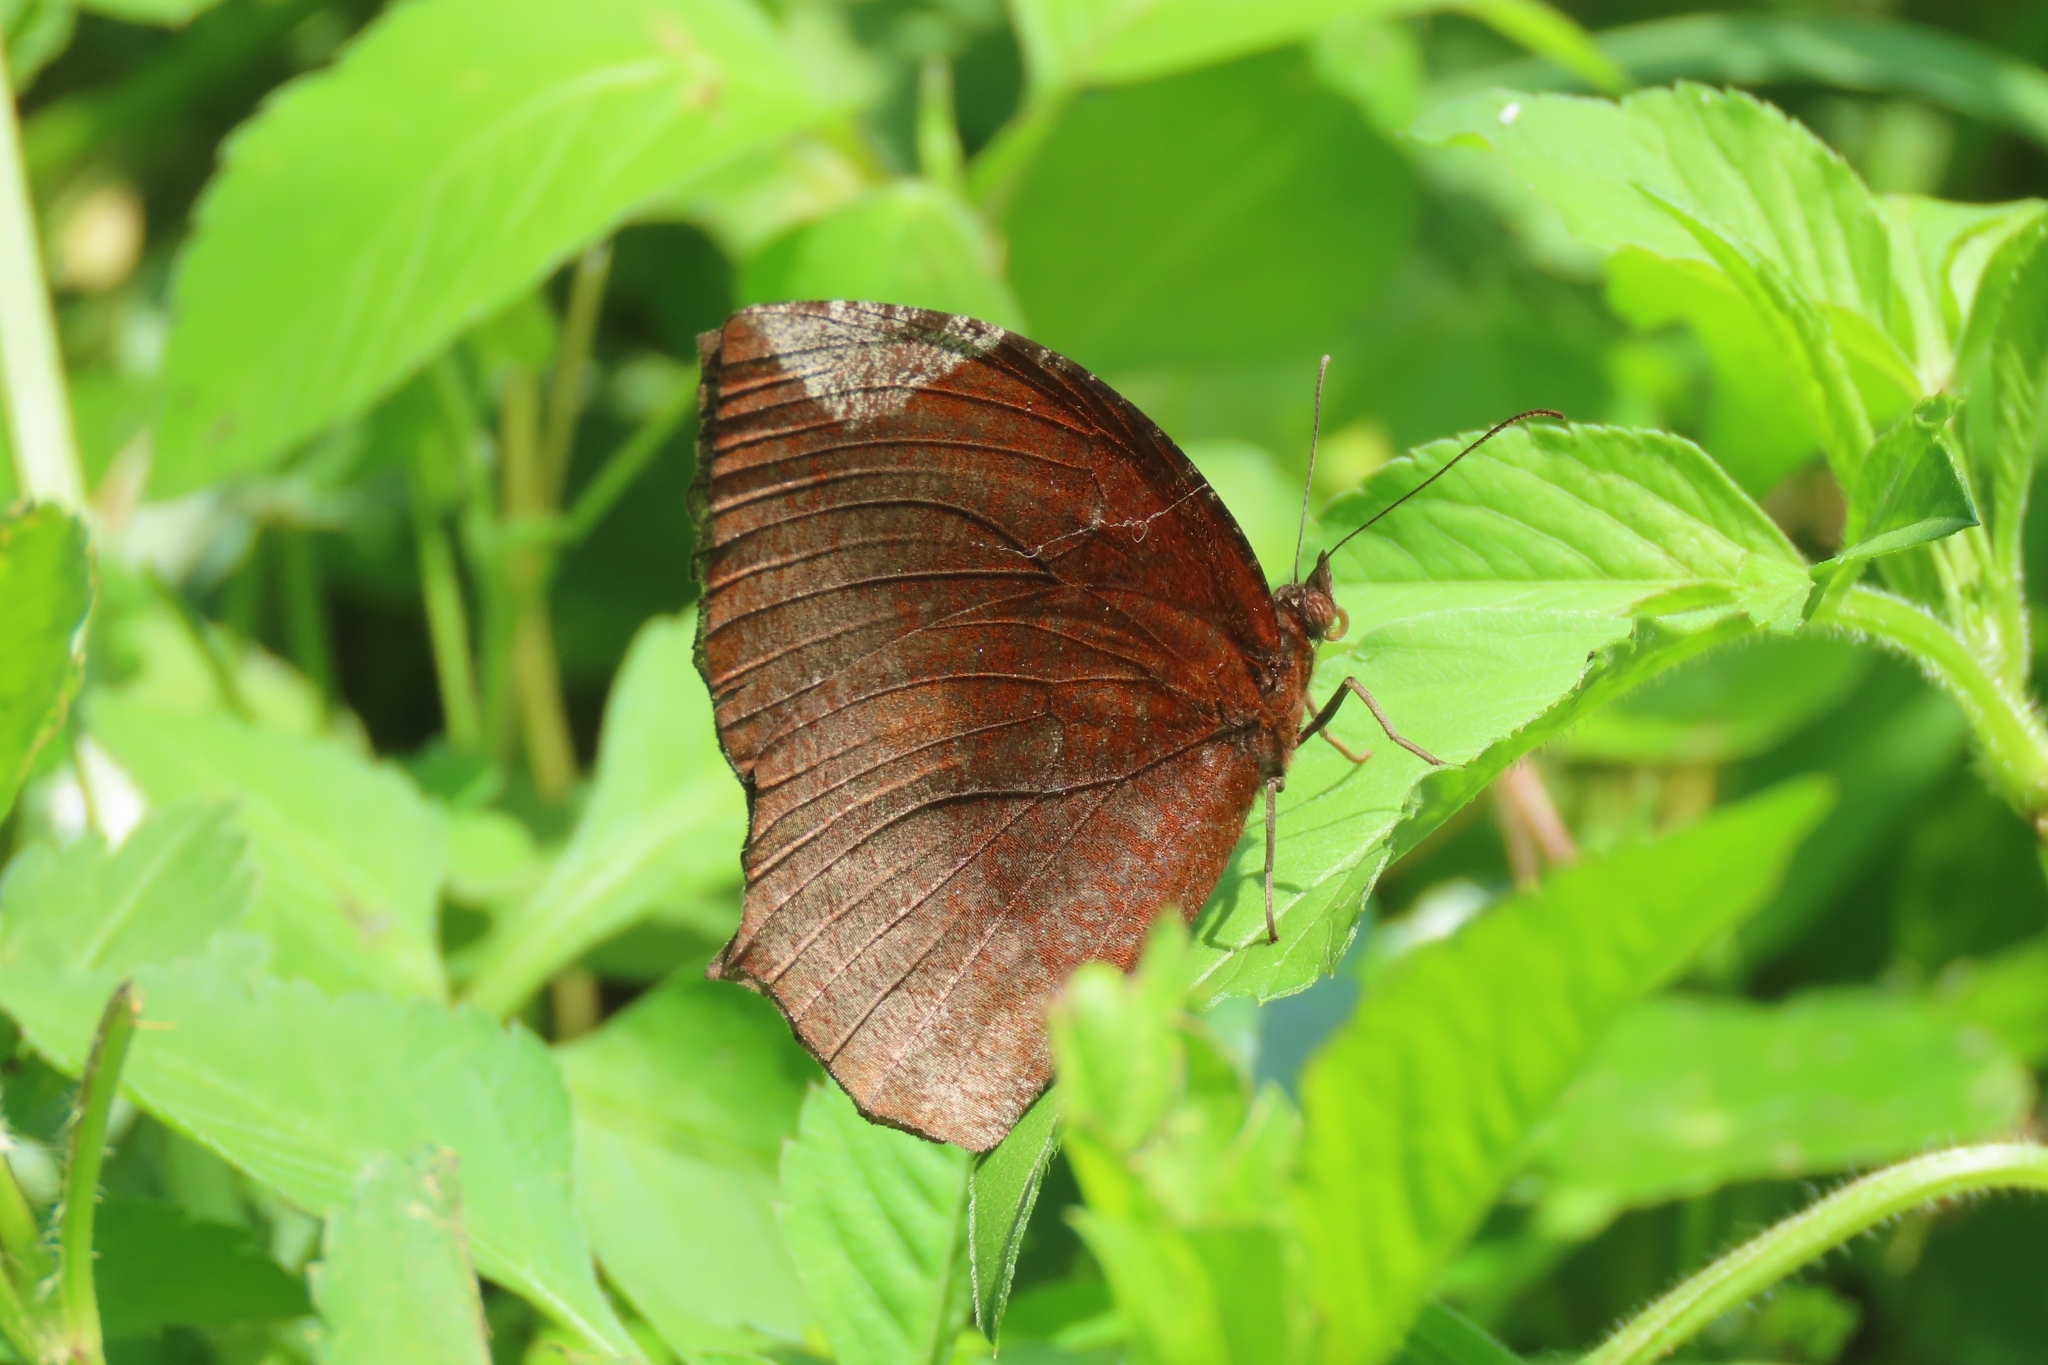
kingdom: Animalia
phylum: Arthropoda
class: Insecta
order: Lepidoptera
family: Nymphalidae
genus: Elymnias
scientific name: Elymnias hypermnestra
